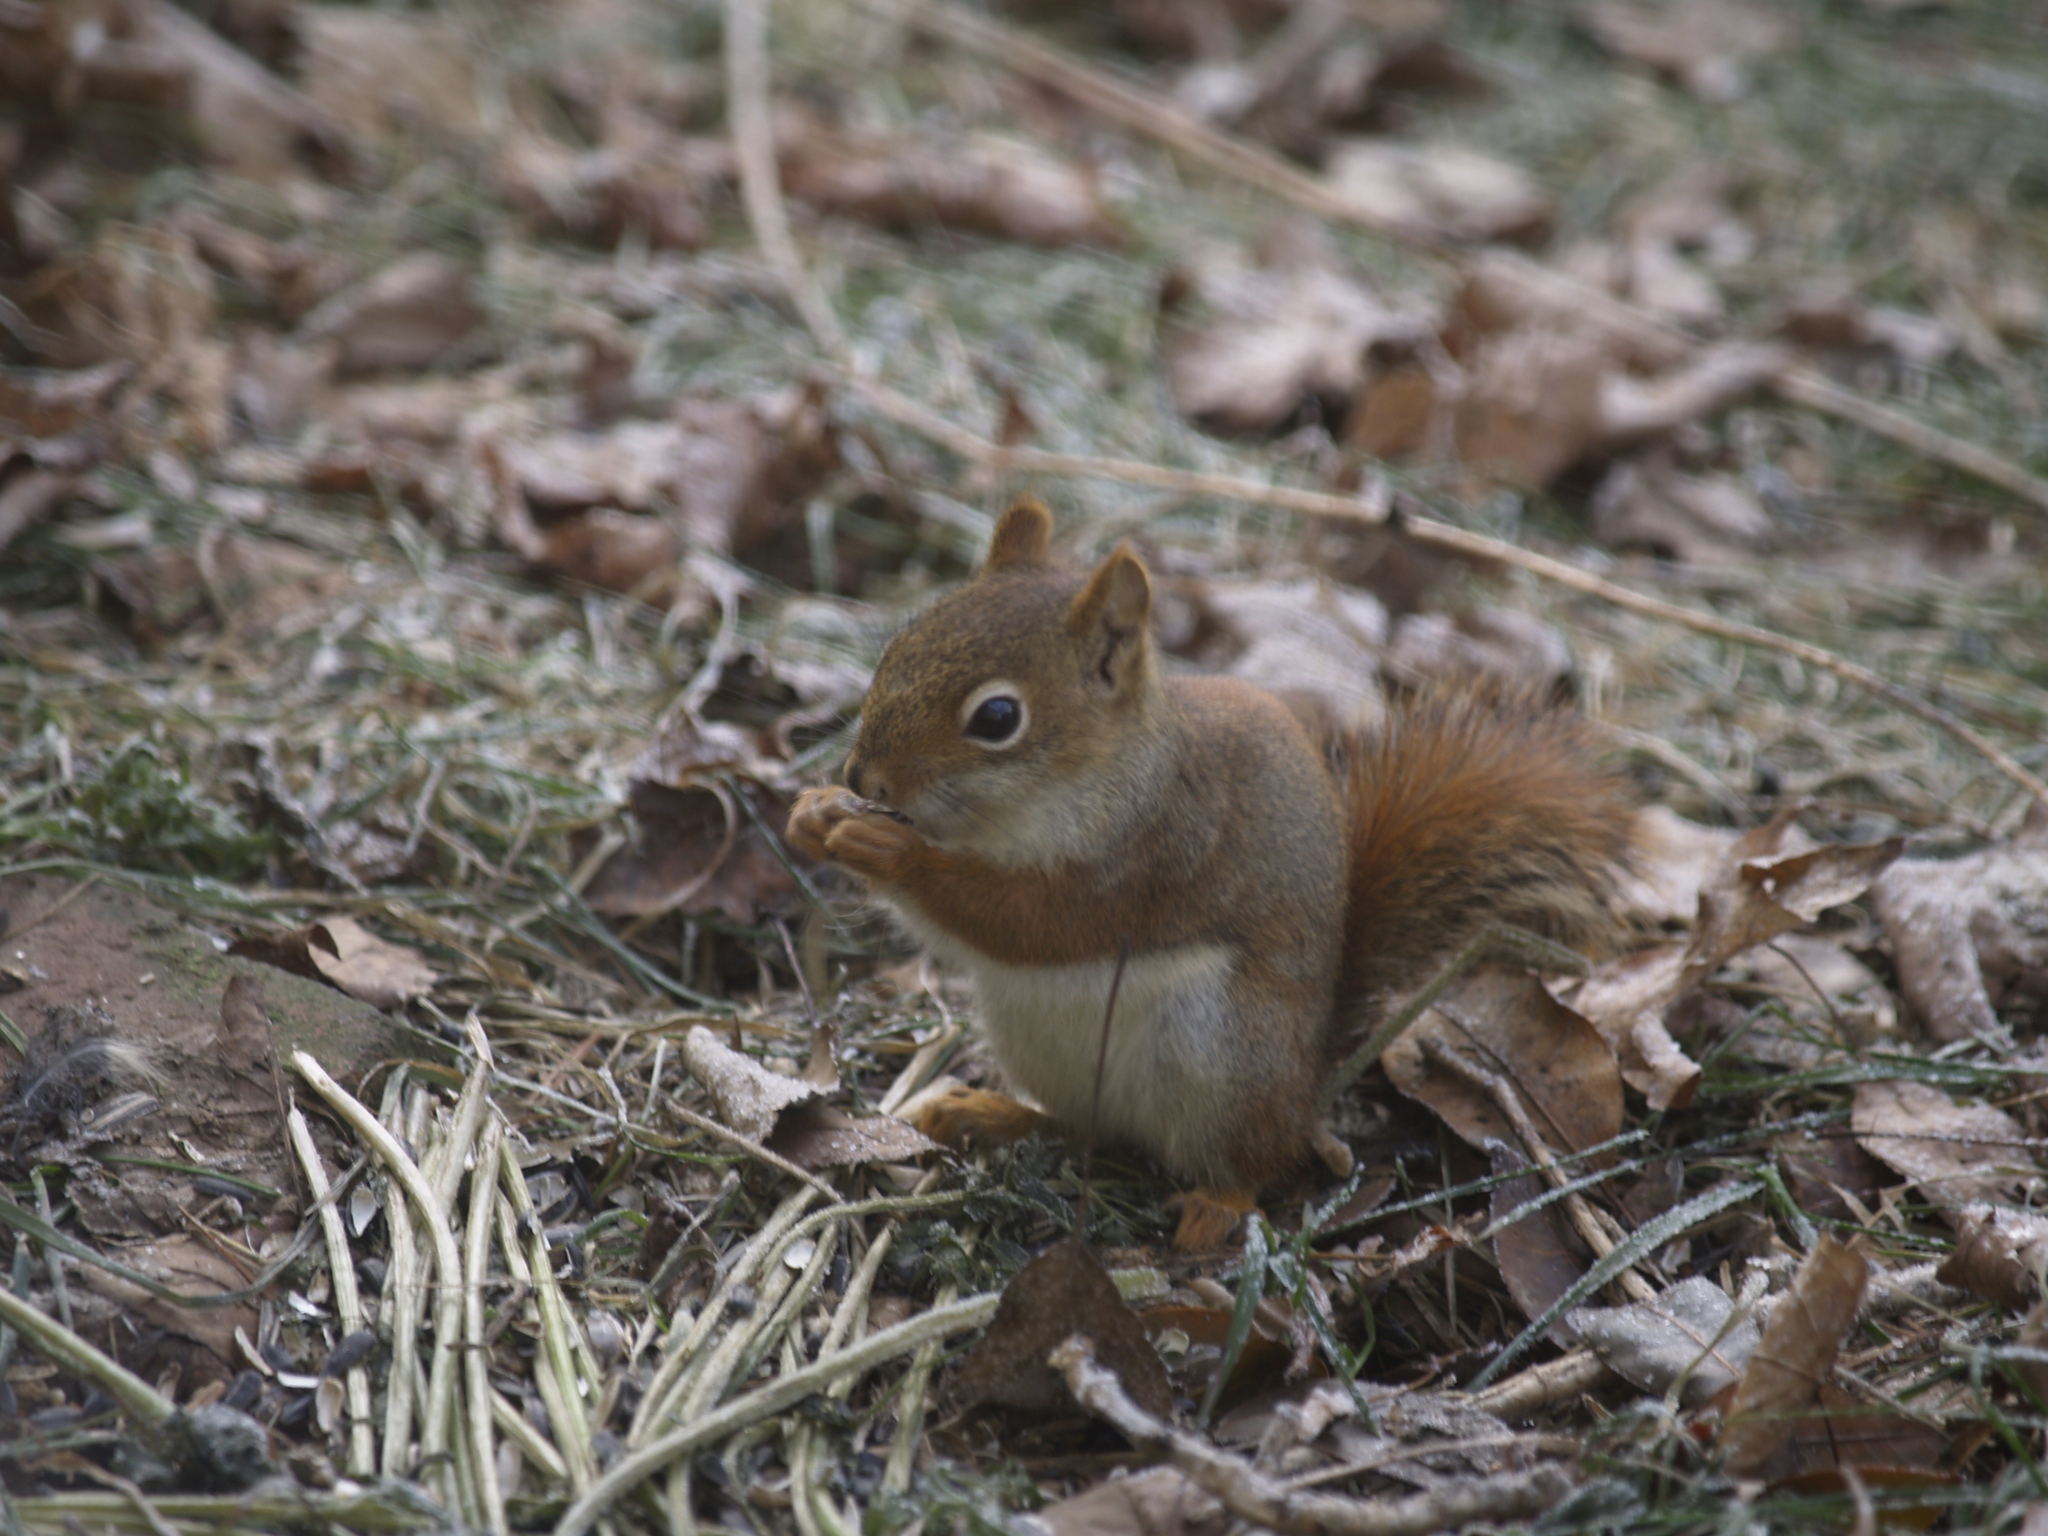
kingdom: Animalia
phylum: Chordata
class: Mammalia
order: Rodentia
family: Sciuridae
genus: Tamiasciurus
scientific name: Tamiasciurus hudsonicus
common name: Red squirrel
